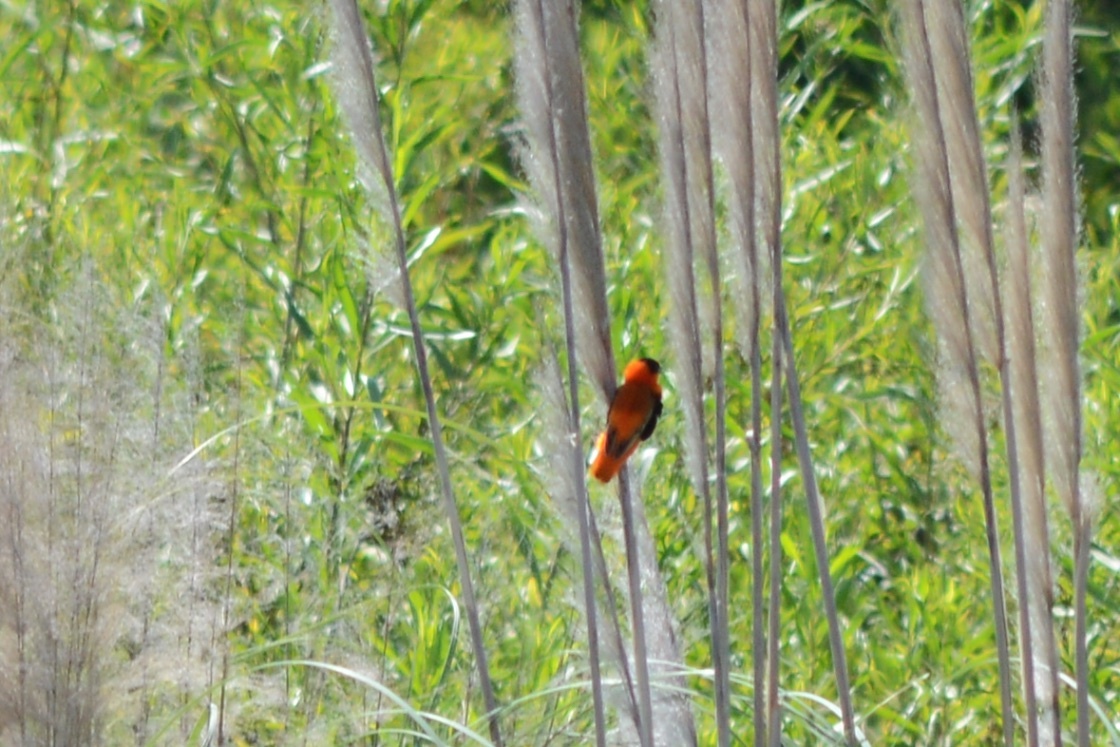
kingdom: Animalia
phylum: Chordata
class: Aves
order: Passeriformes
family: Ploceidae
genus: Euplectes
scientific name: Euplectes franciscanus
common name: Northern red bishop
